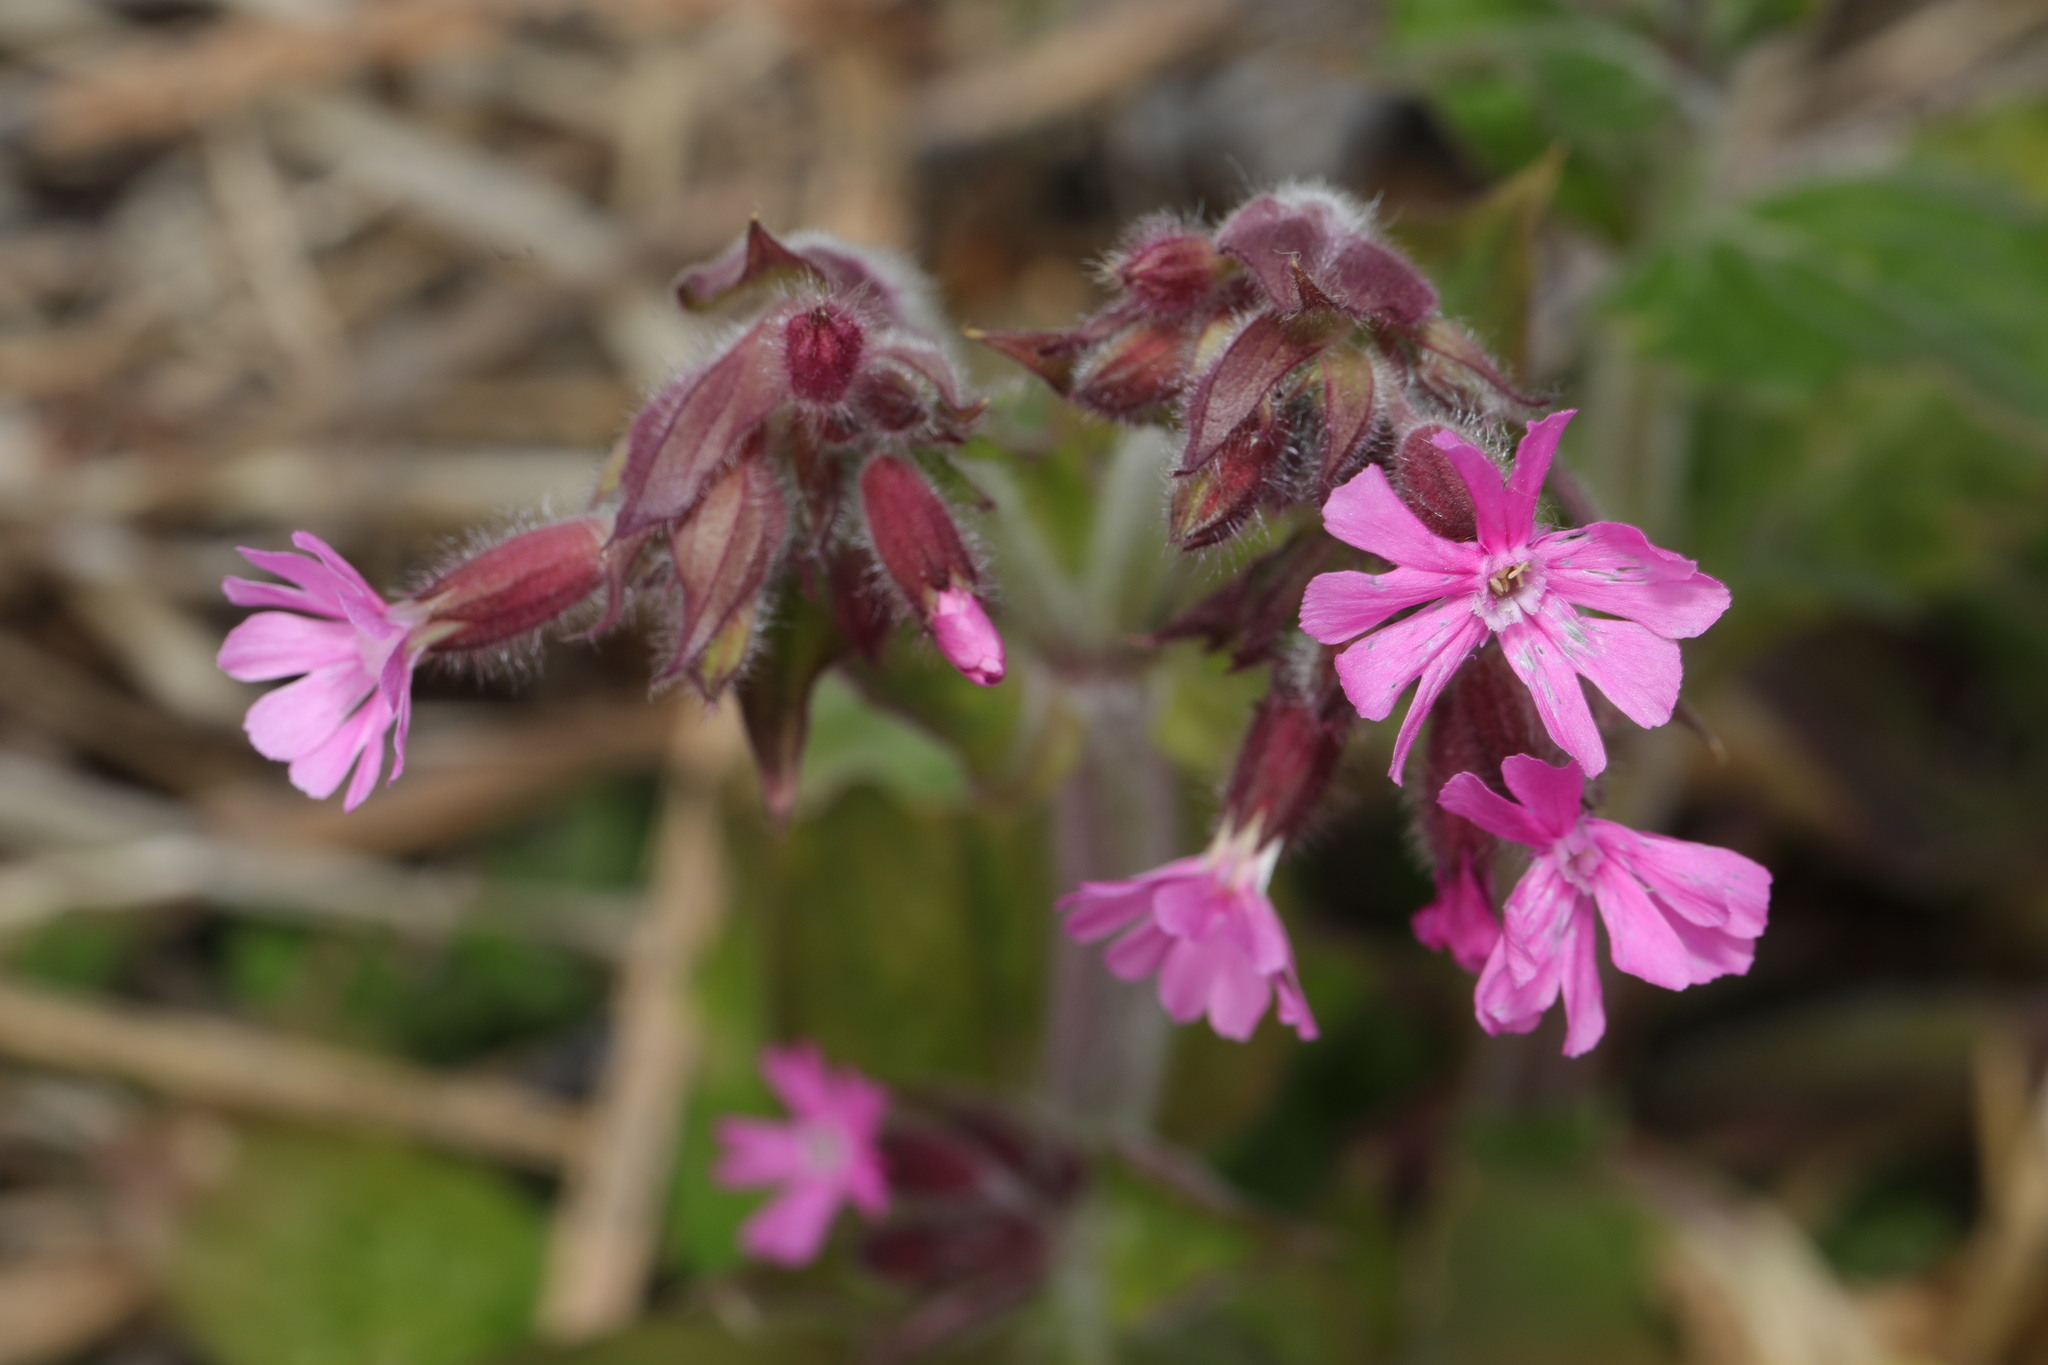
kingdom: Plantae
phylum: Tracheophyta
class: Magnoliopsida
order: Caryophyllales
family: Caryophyllaceae
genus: Silene
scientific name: Silene dioica
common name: Red campion
